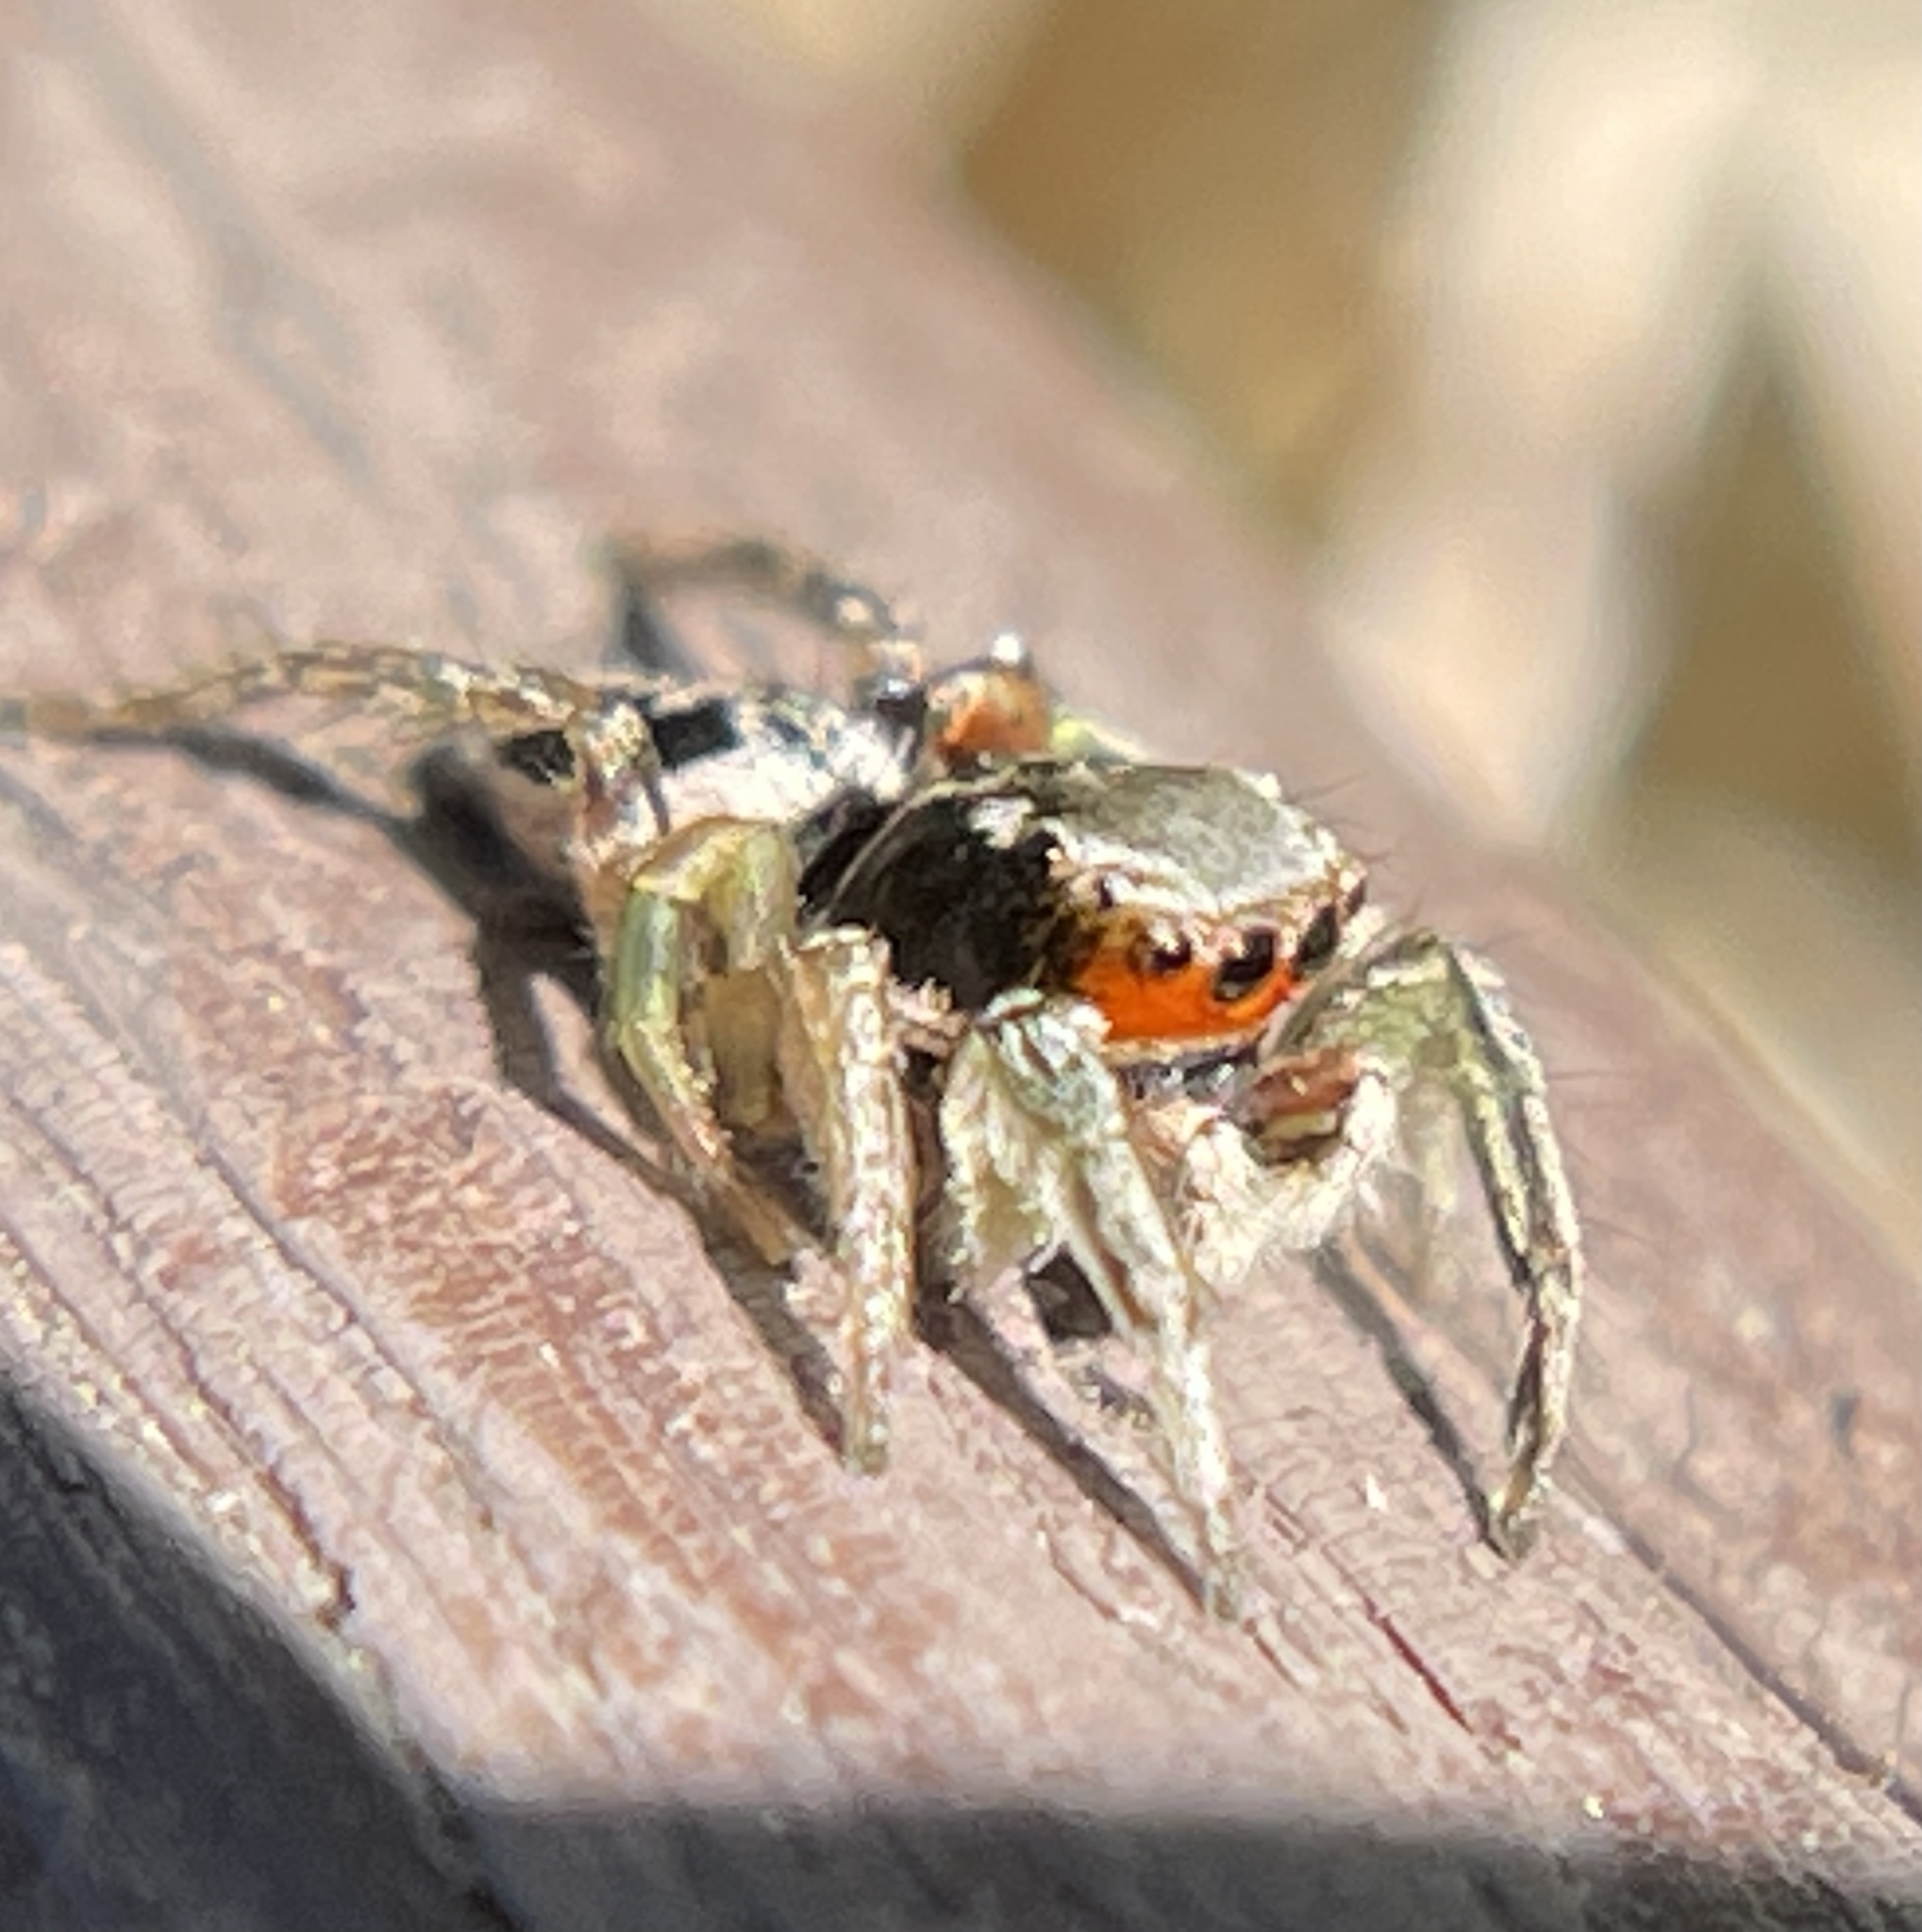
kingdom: Animalia
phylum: Arthropoda
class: Arachnida
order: Araneae
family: Salticidae
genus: Habronattus
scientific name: Habronattus pyrrithrix
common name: Jumping spider
